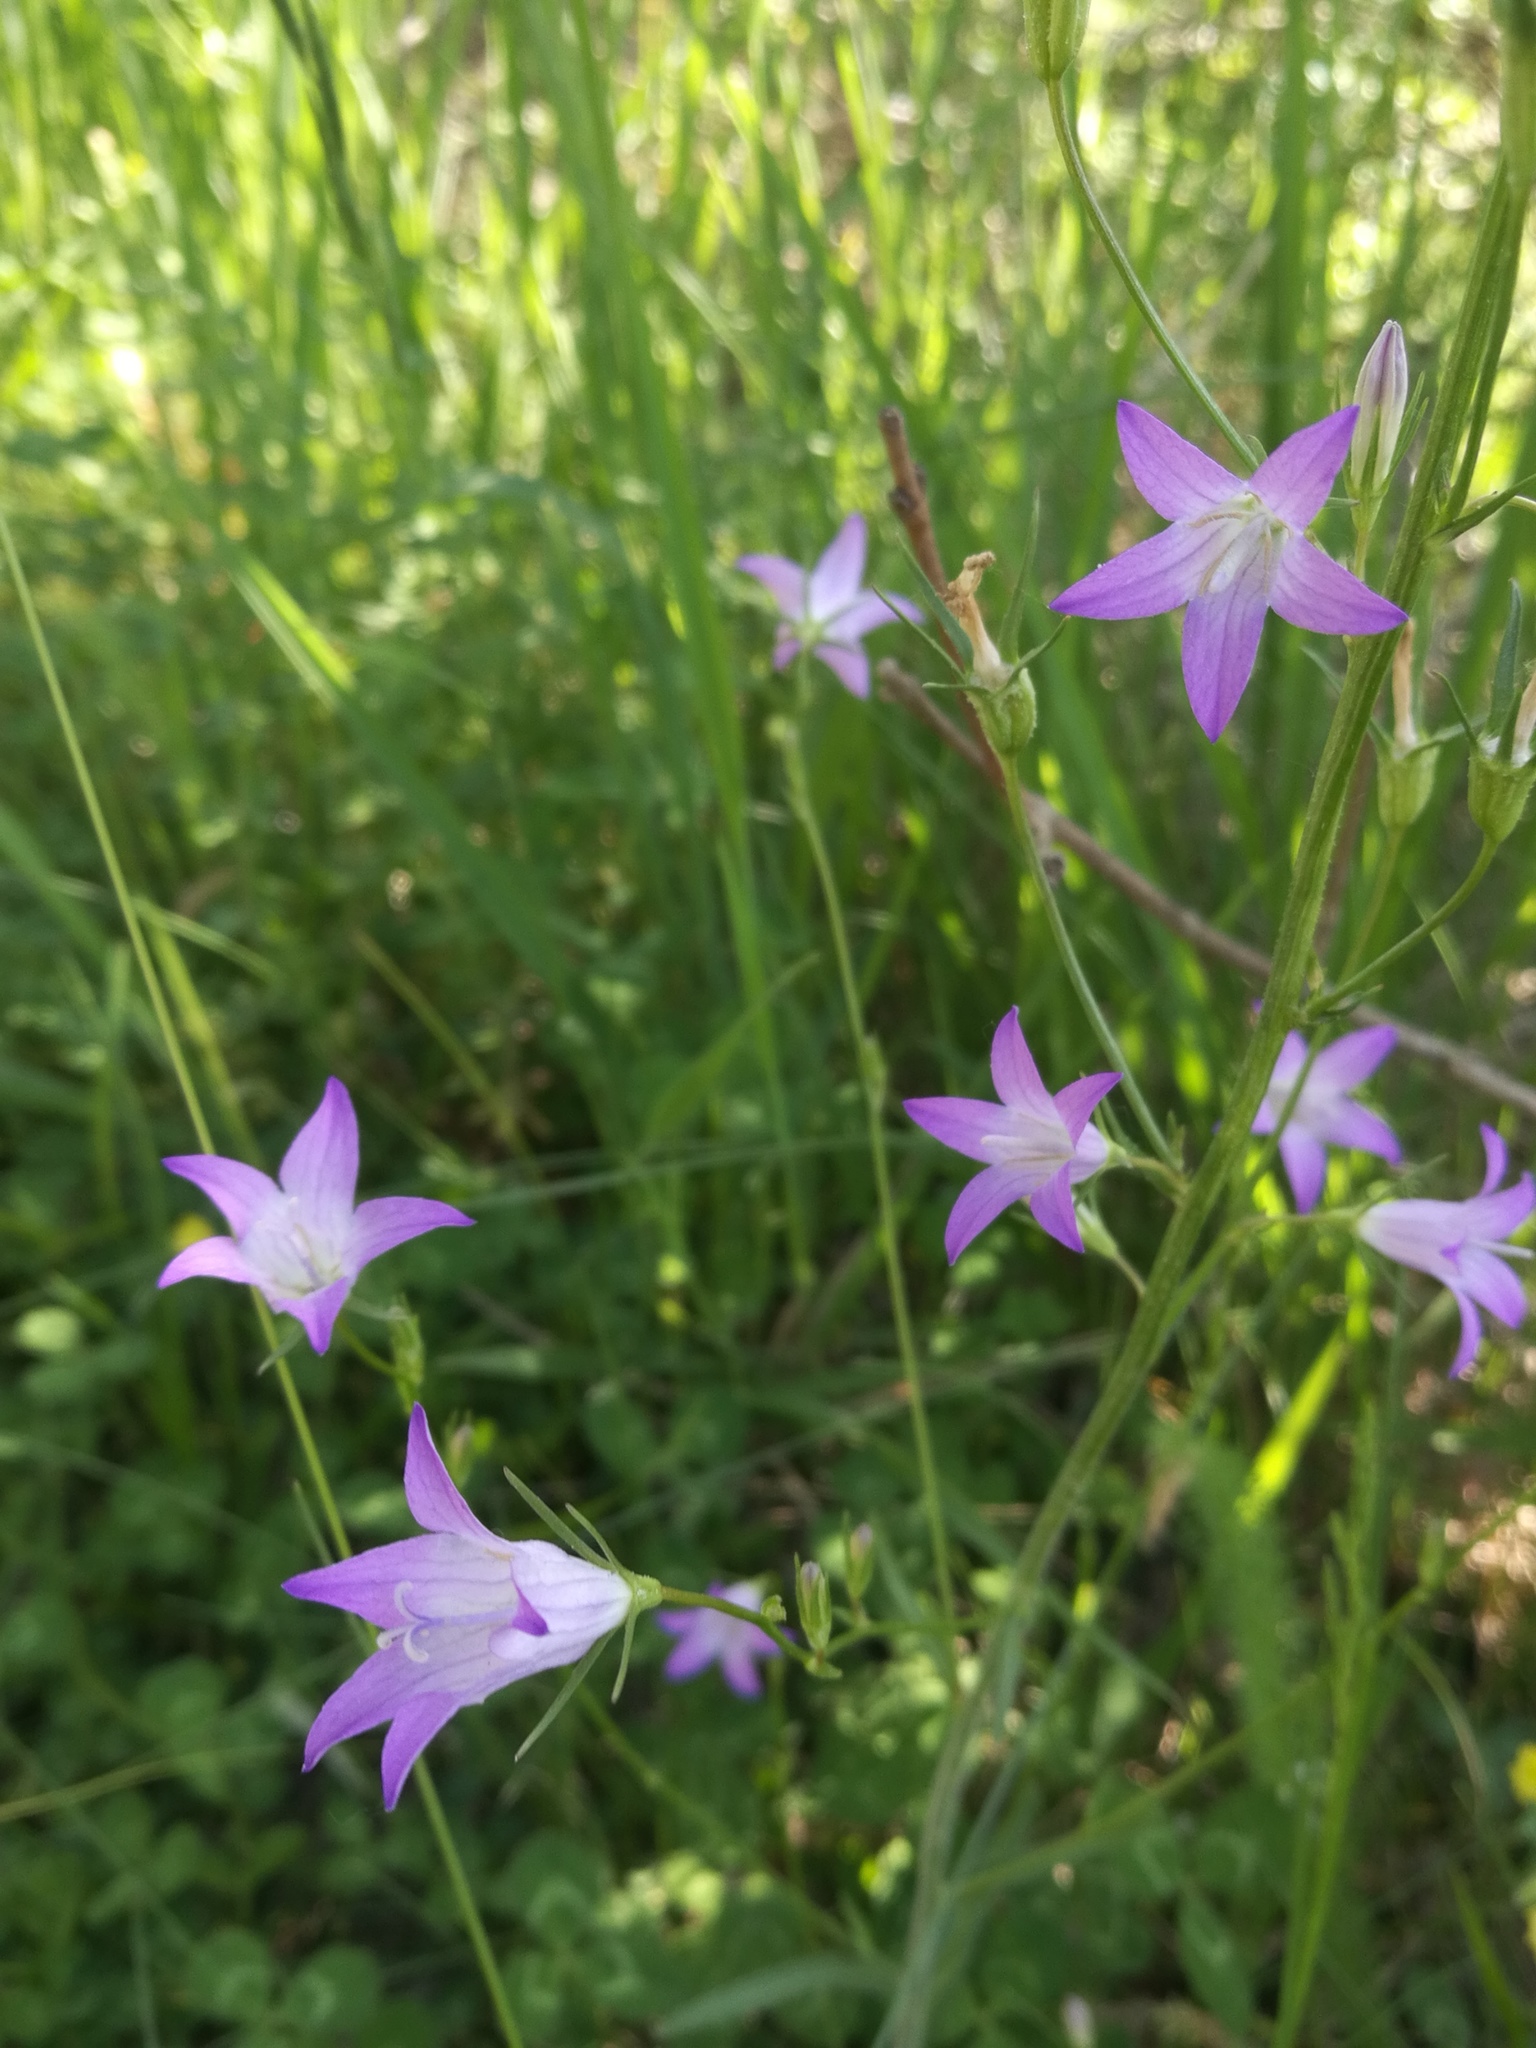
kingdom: Plantae
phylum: Tracheophyta
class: Magnoliopsida
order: Asterales
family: Campanulaceae
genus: Campanula
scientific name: Campanula rapunculus
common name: Rampion bellflower
